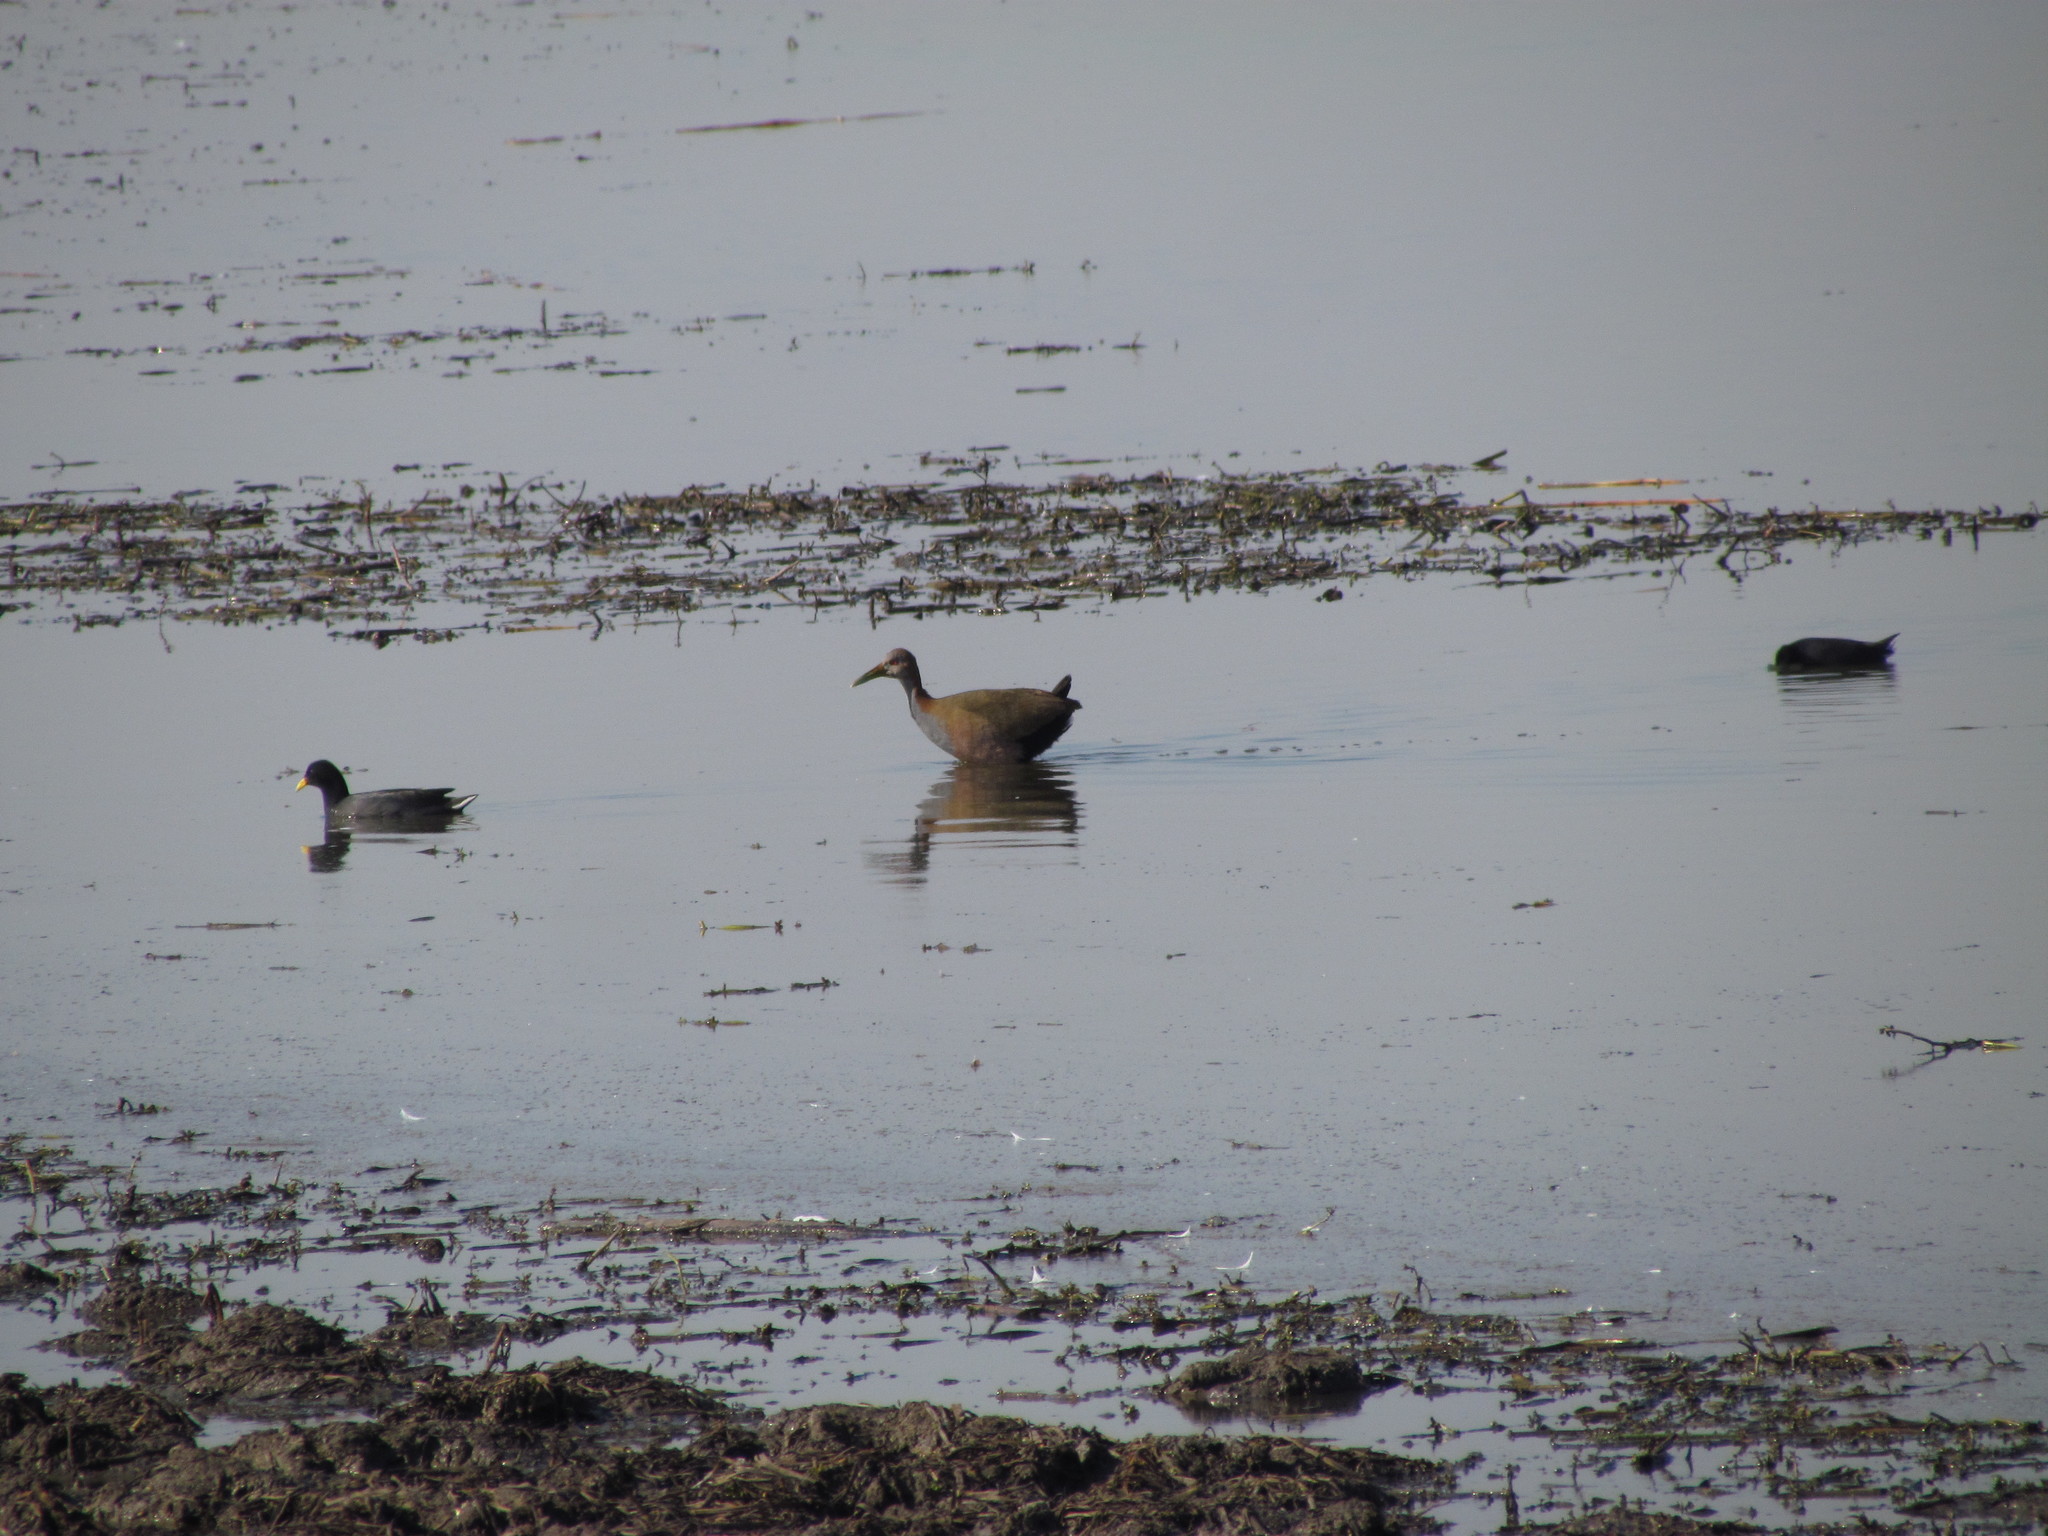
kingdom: Animalia
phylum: Chordata
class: Aves
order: Gruiformes
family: Rallidae
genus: Aramides
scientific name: Aramides ypecaha
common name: Giant wood rail
